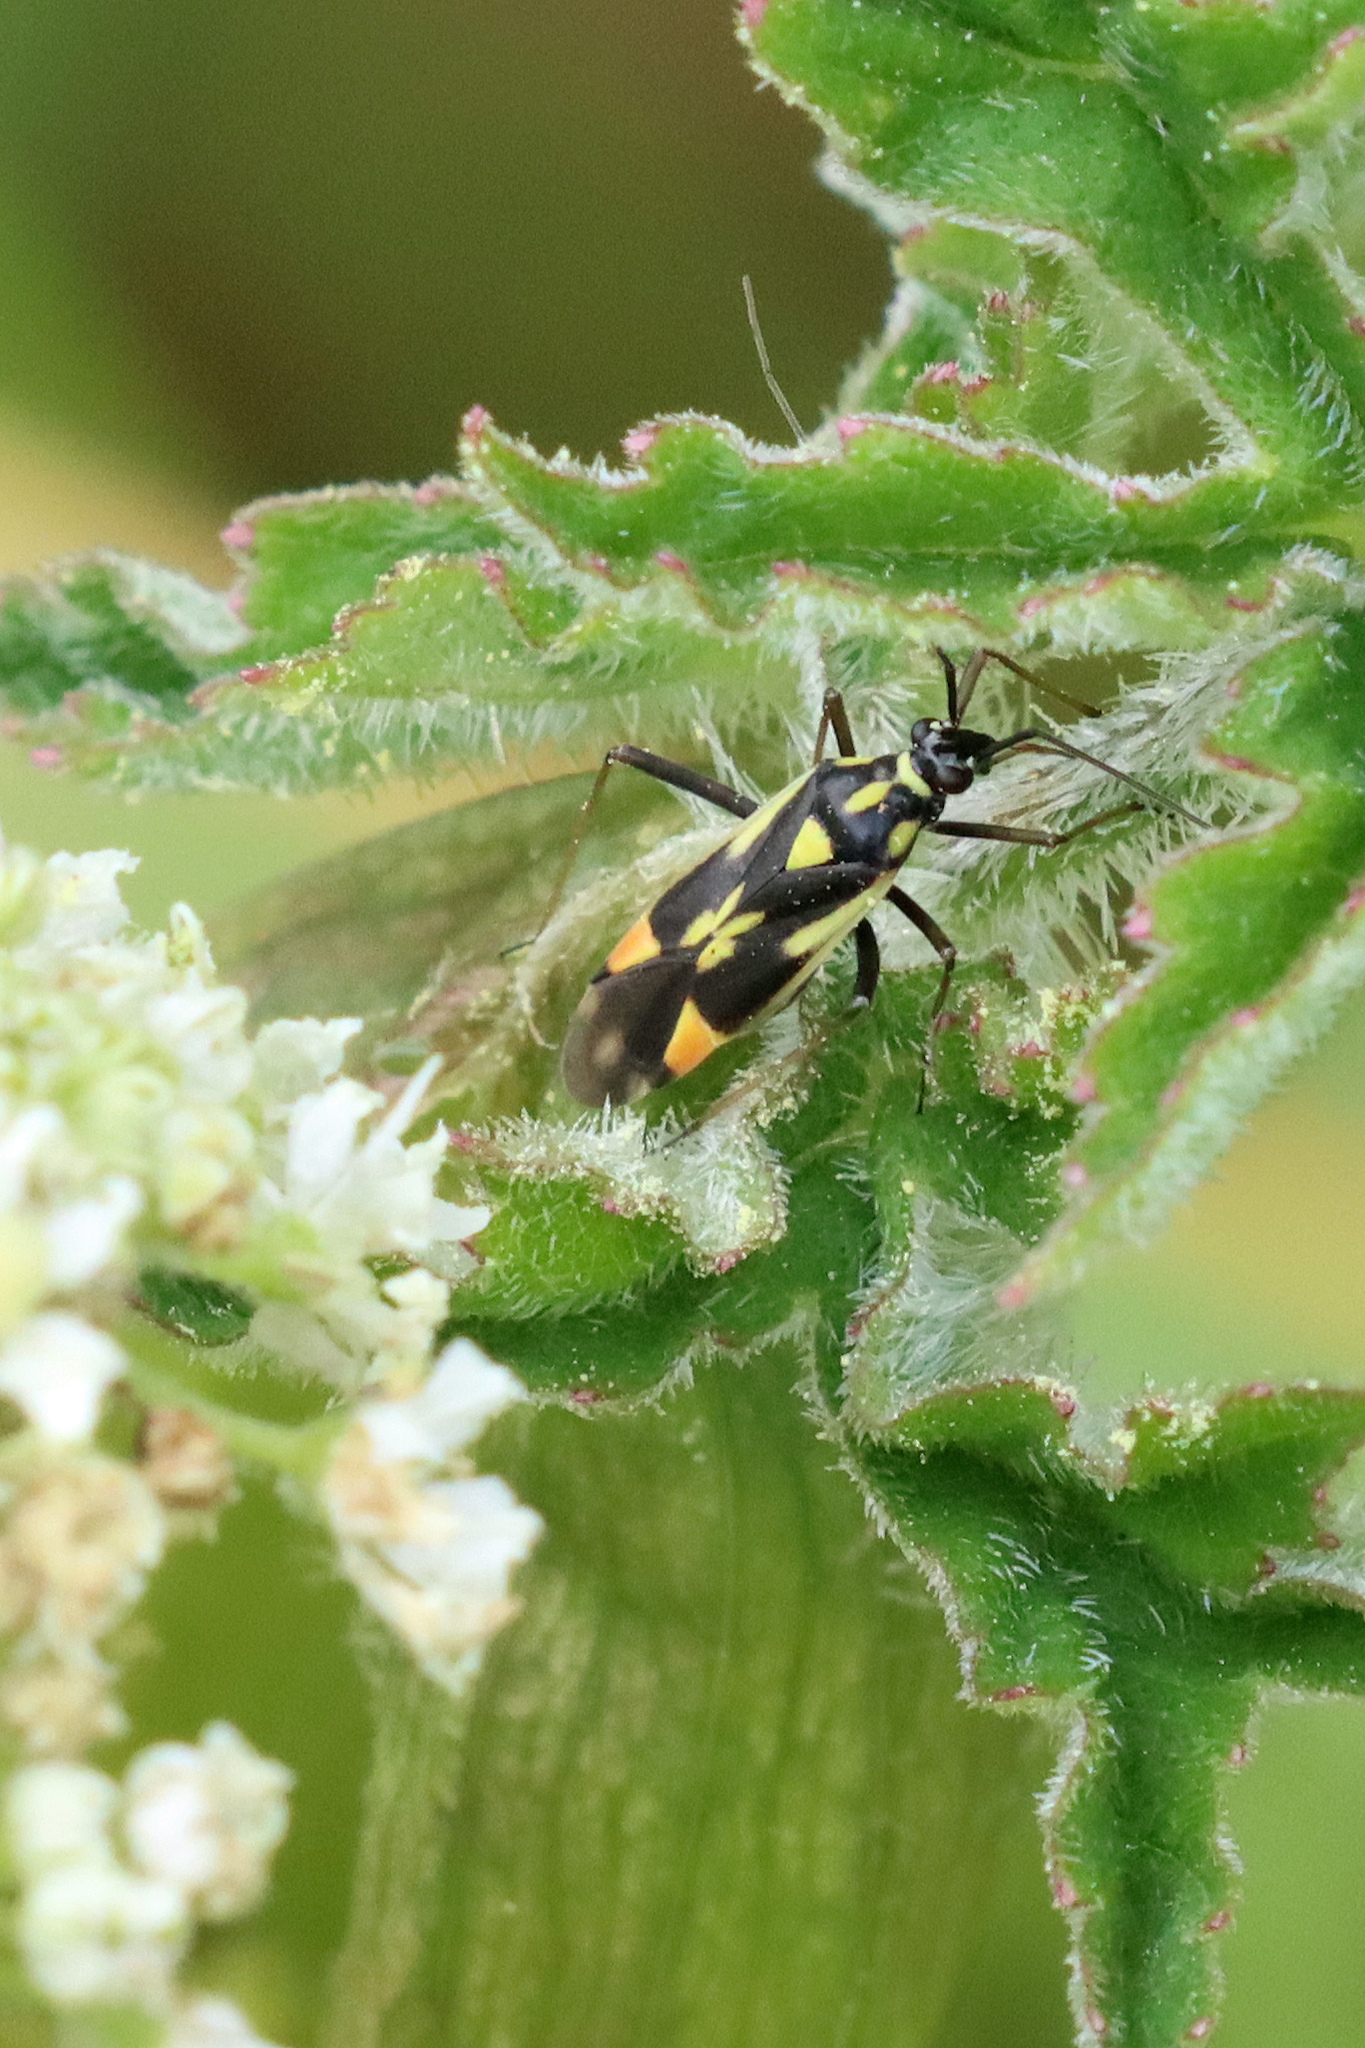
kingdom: Animalia
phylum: Arthropoda
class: Insecta
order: Hemiptera
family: Miridae
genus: Grypocoris
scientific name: Grypocoris stysi
